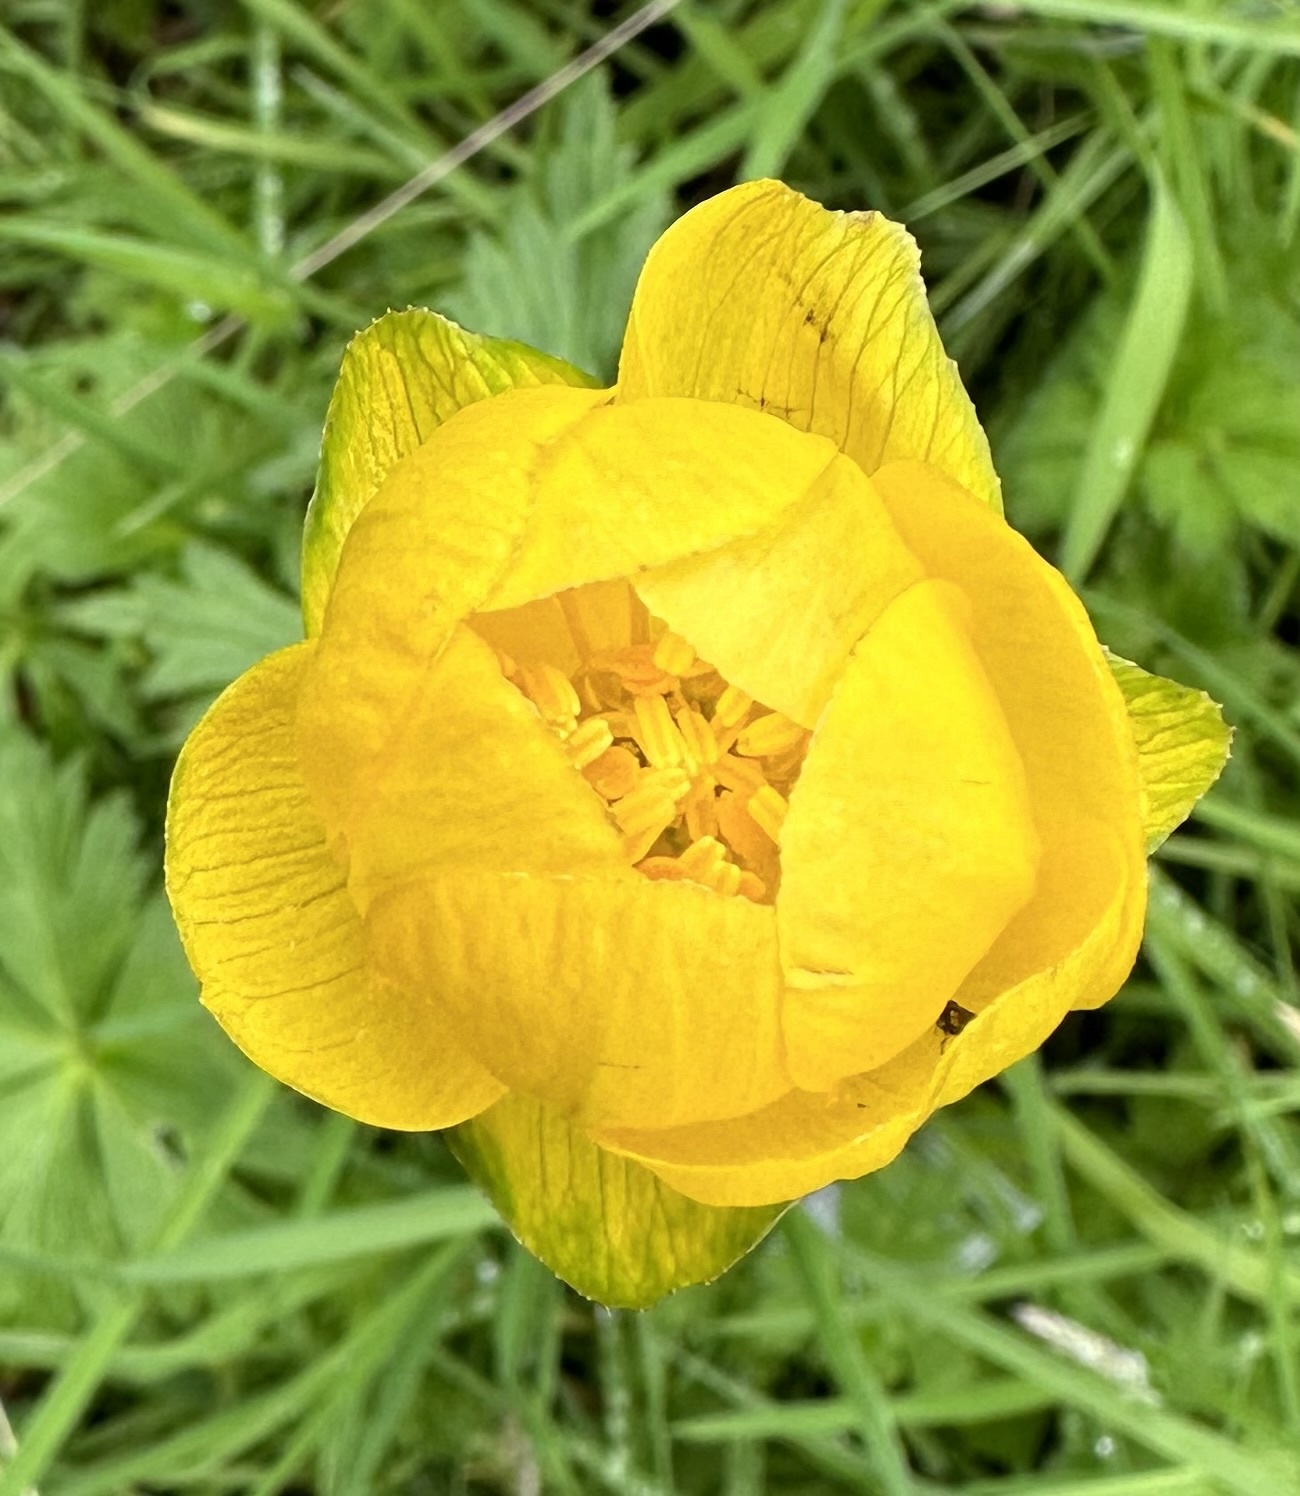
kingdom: Plantae
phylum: Tracheophyta
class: Magnoliopsida
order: Ranunculales
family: Ranunculaceae
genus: Trollius
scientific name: Trollius europaeus
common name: European globeflower
